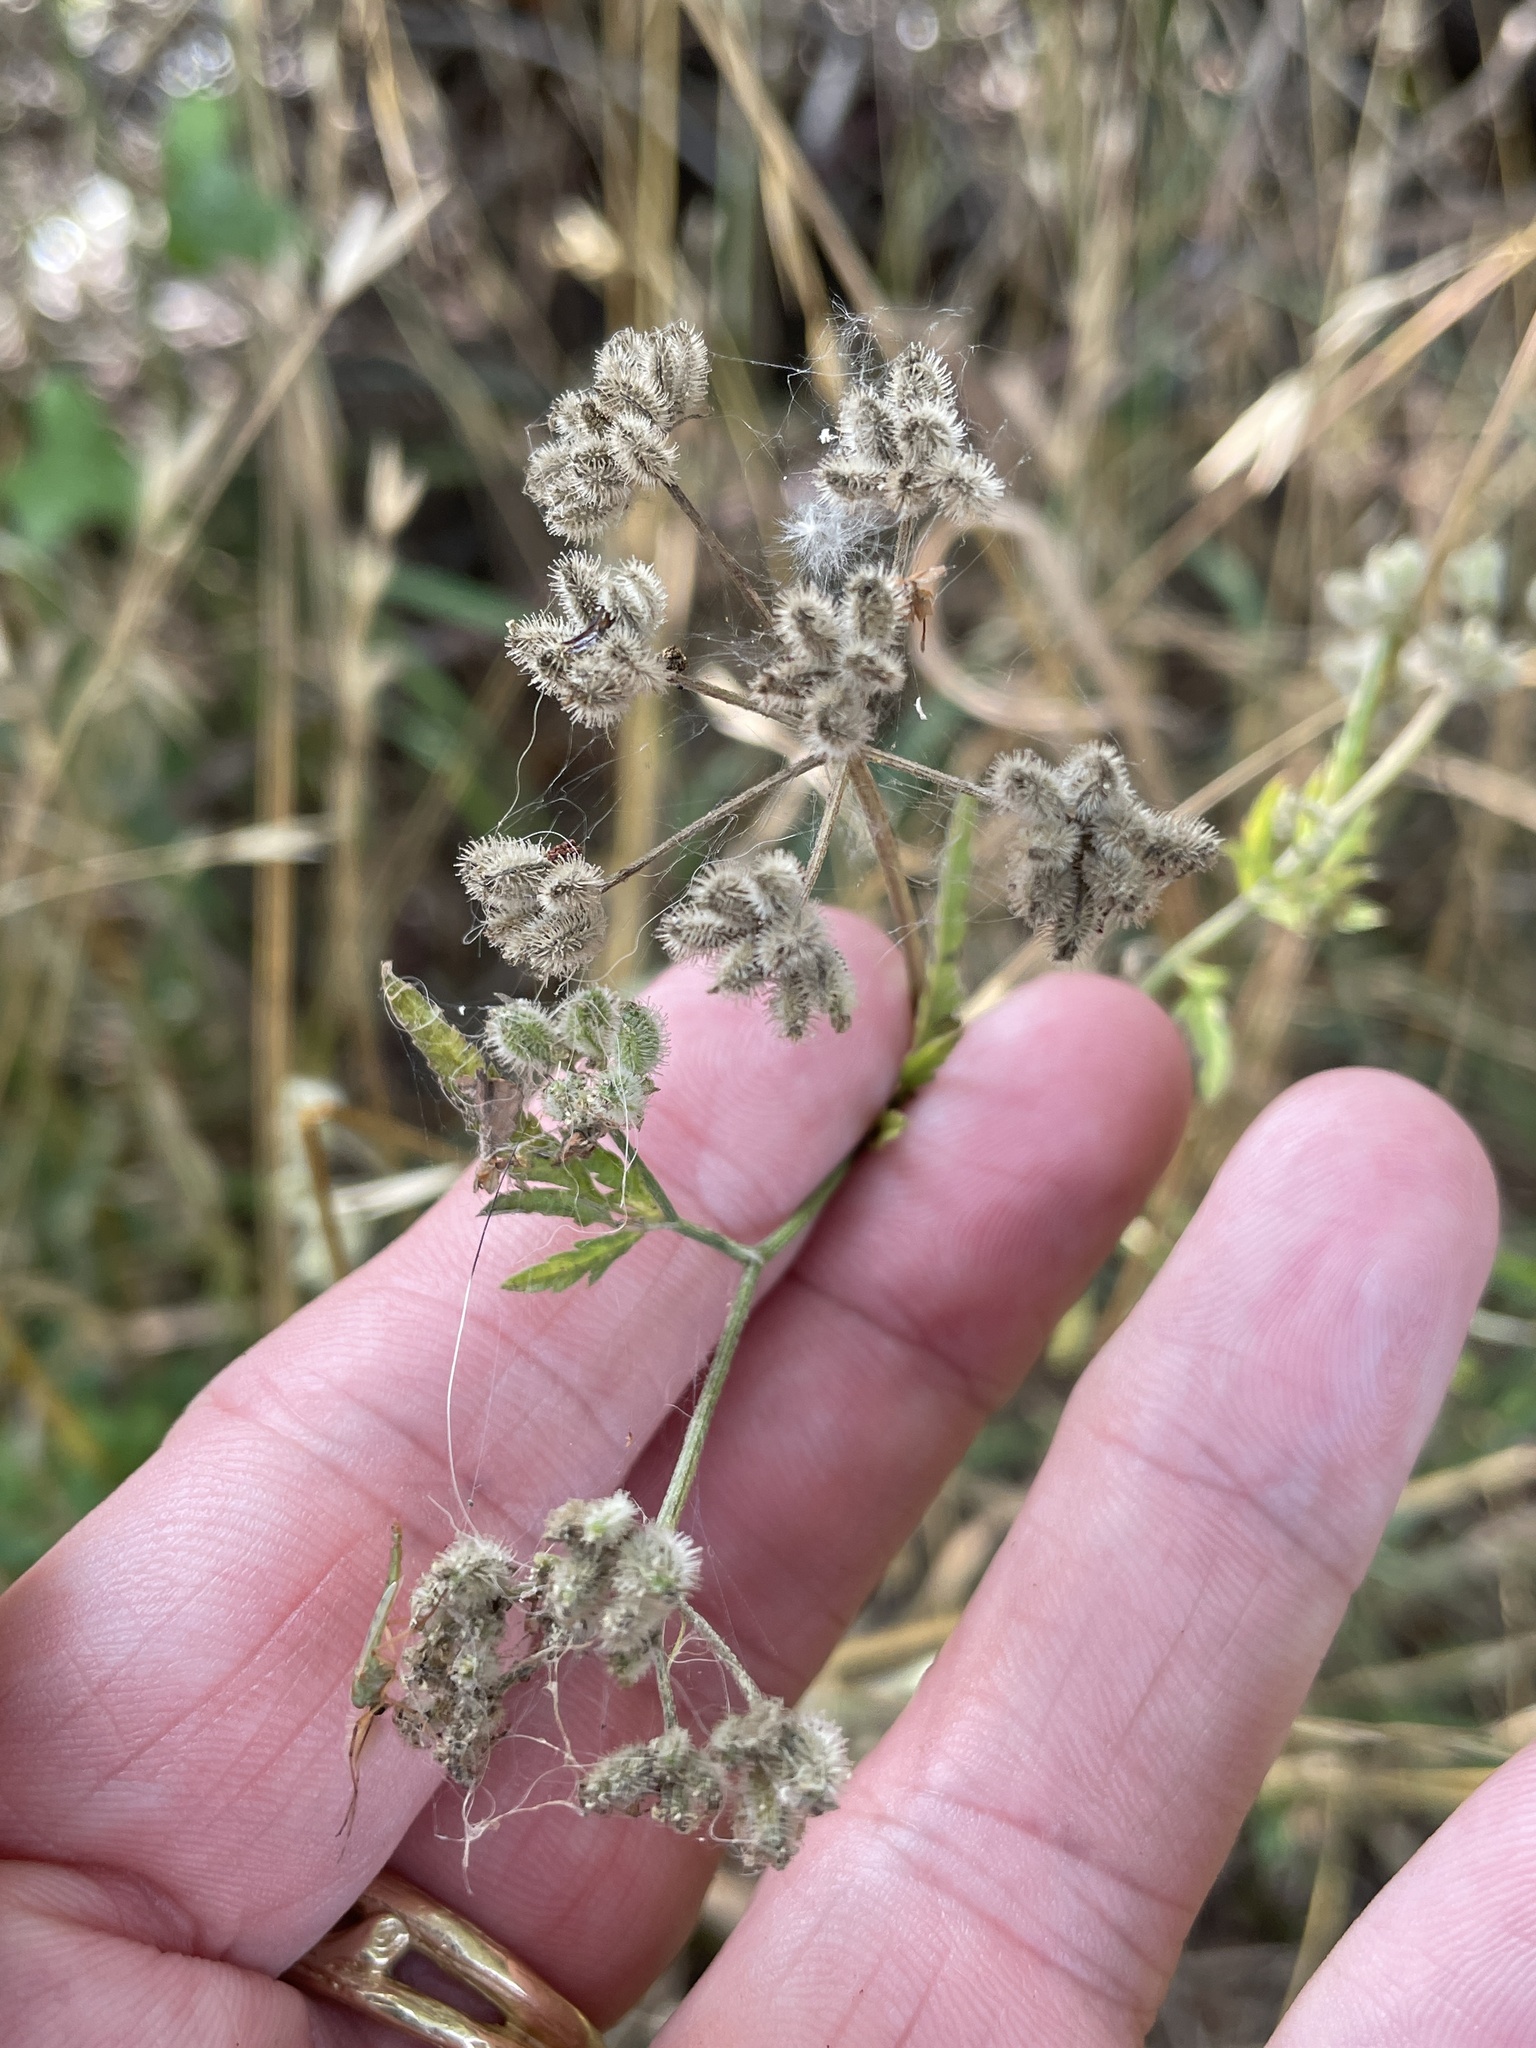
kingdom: Plantae
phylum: Tracheophyta
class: Magnoliopsida
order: Apiales
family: Apiaceae
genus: Torilis
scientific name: Torilis arvensis
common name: Spreading hedge-parsley
